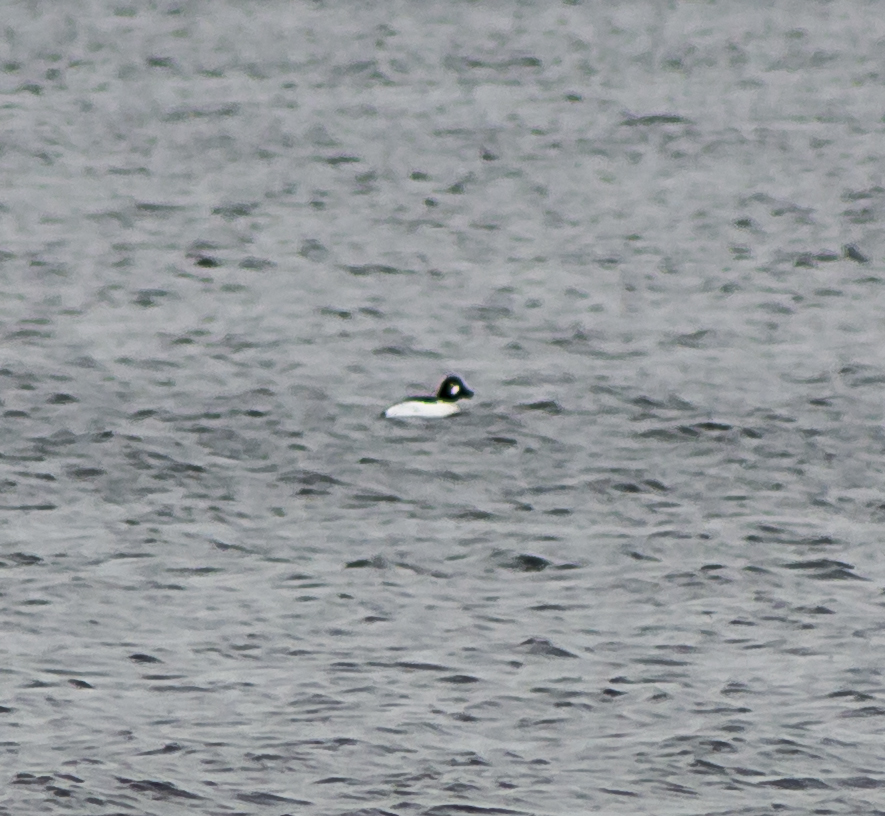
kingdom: Animalia
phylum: Chordata
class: Aves
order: Anseriformes
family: Anatidae
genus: Bucephala
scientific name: Bucephala clangula
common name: Common goldeneye
